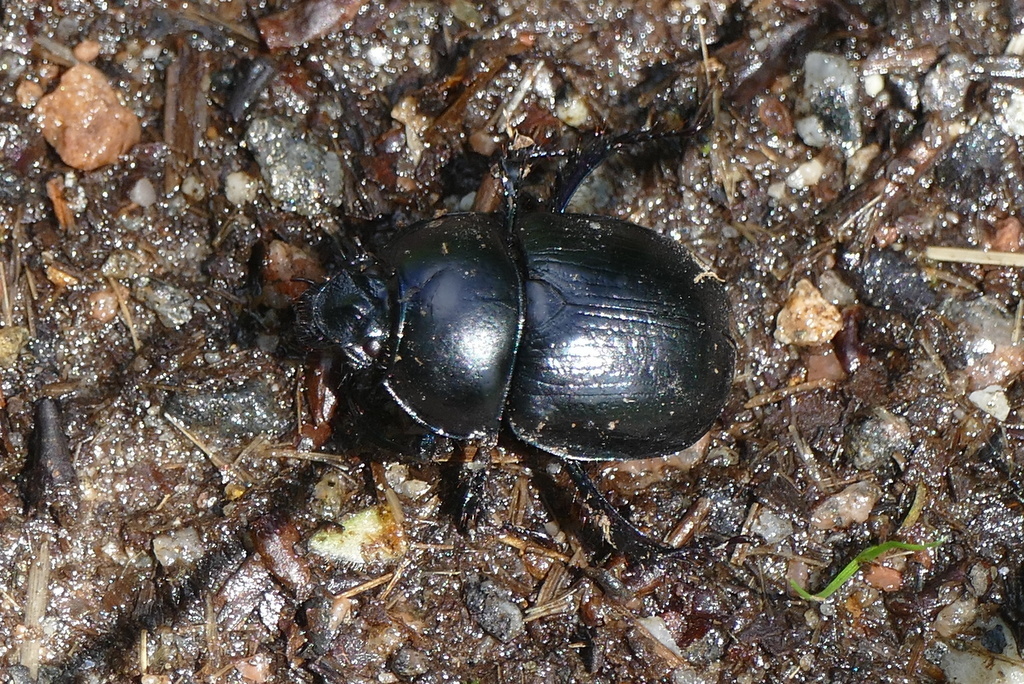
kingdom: Animalia
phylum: Arthropoda
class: Insecta
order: Coleoptera
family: Geotrupidae
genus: Anoplotrupes
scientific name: Anoplotrupes stercorosus
